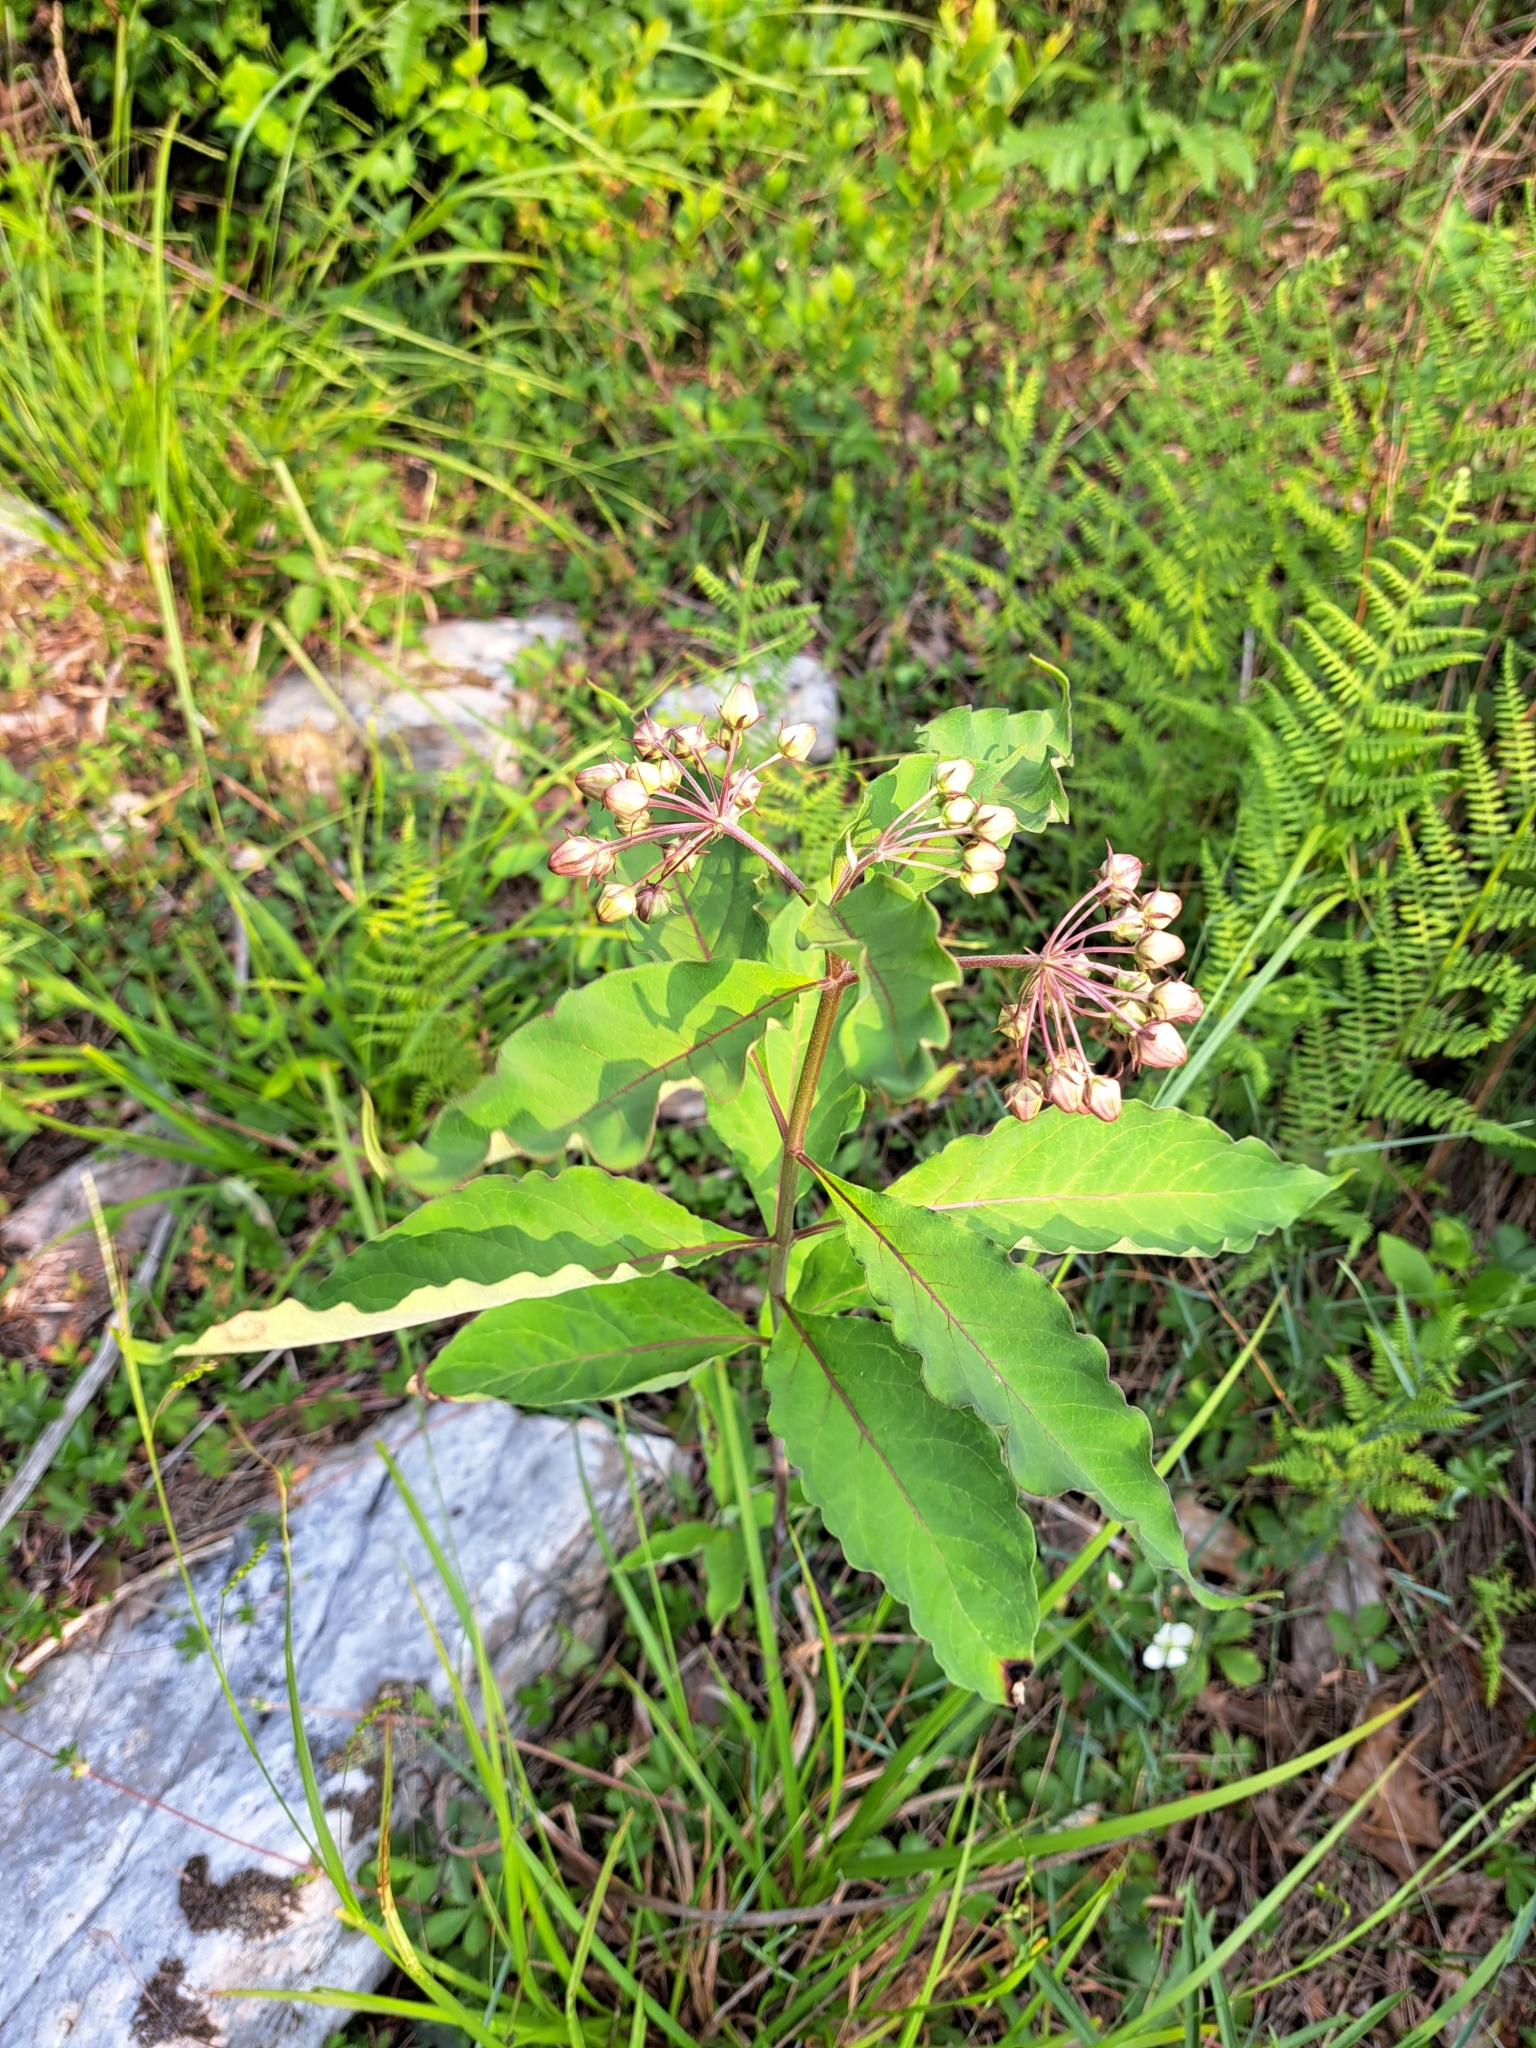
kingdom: Plantae
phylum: Tracheophyta
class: Magnoliopsida
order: Gentianales
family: Apocynaceae
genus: Asclepias
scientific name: Asclepias exaltata
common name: Poke milkweed
